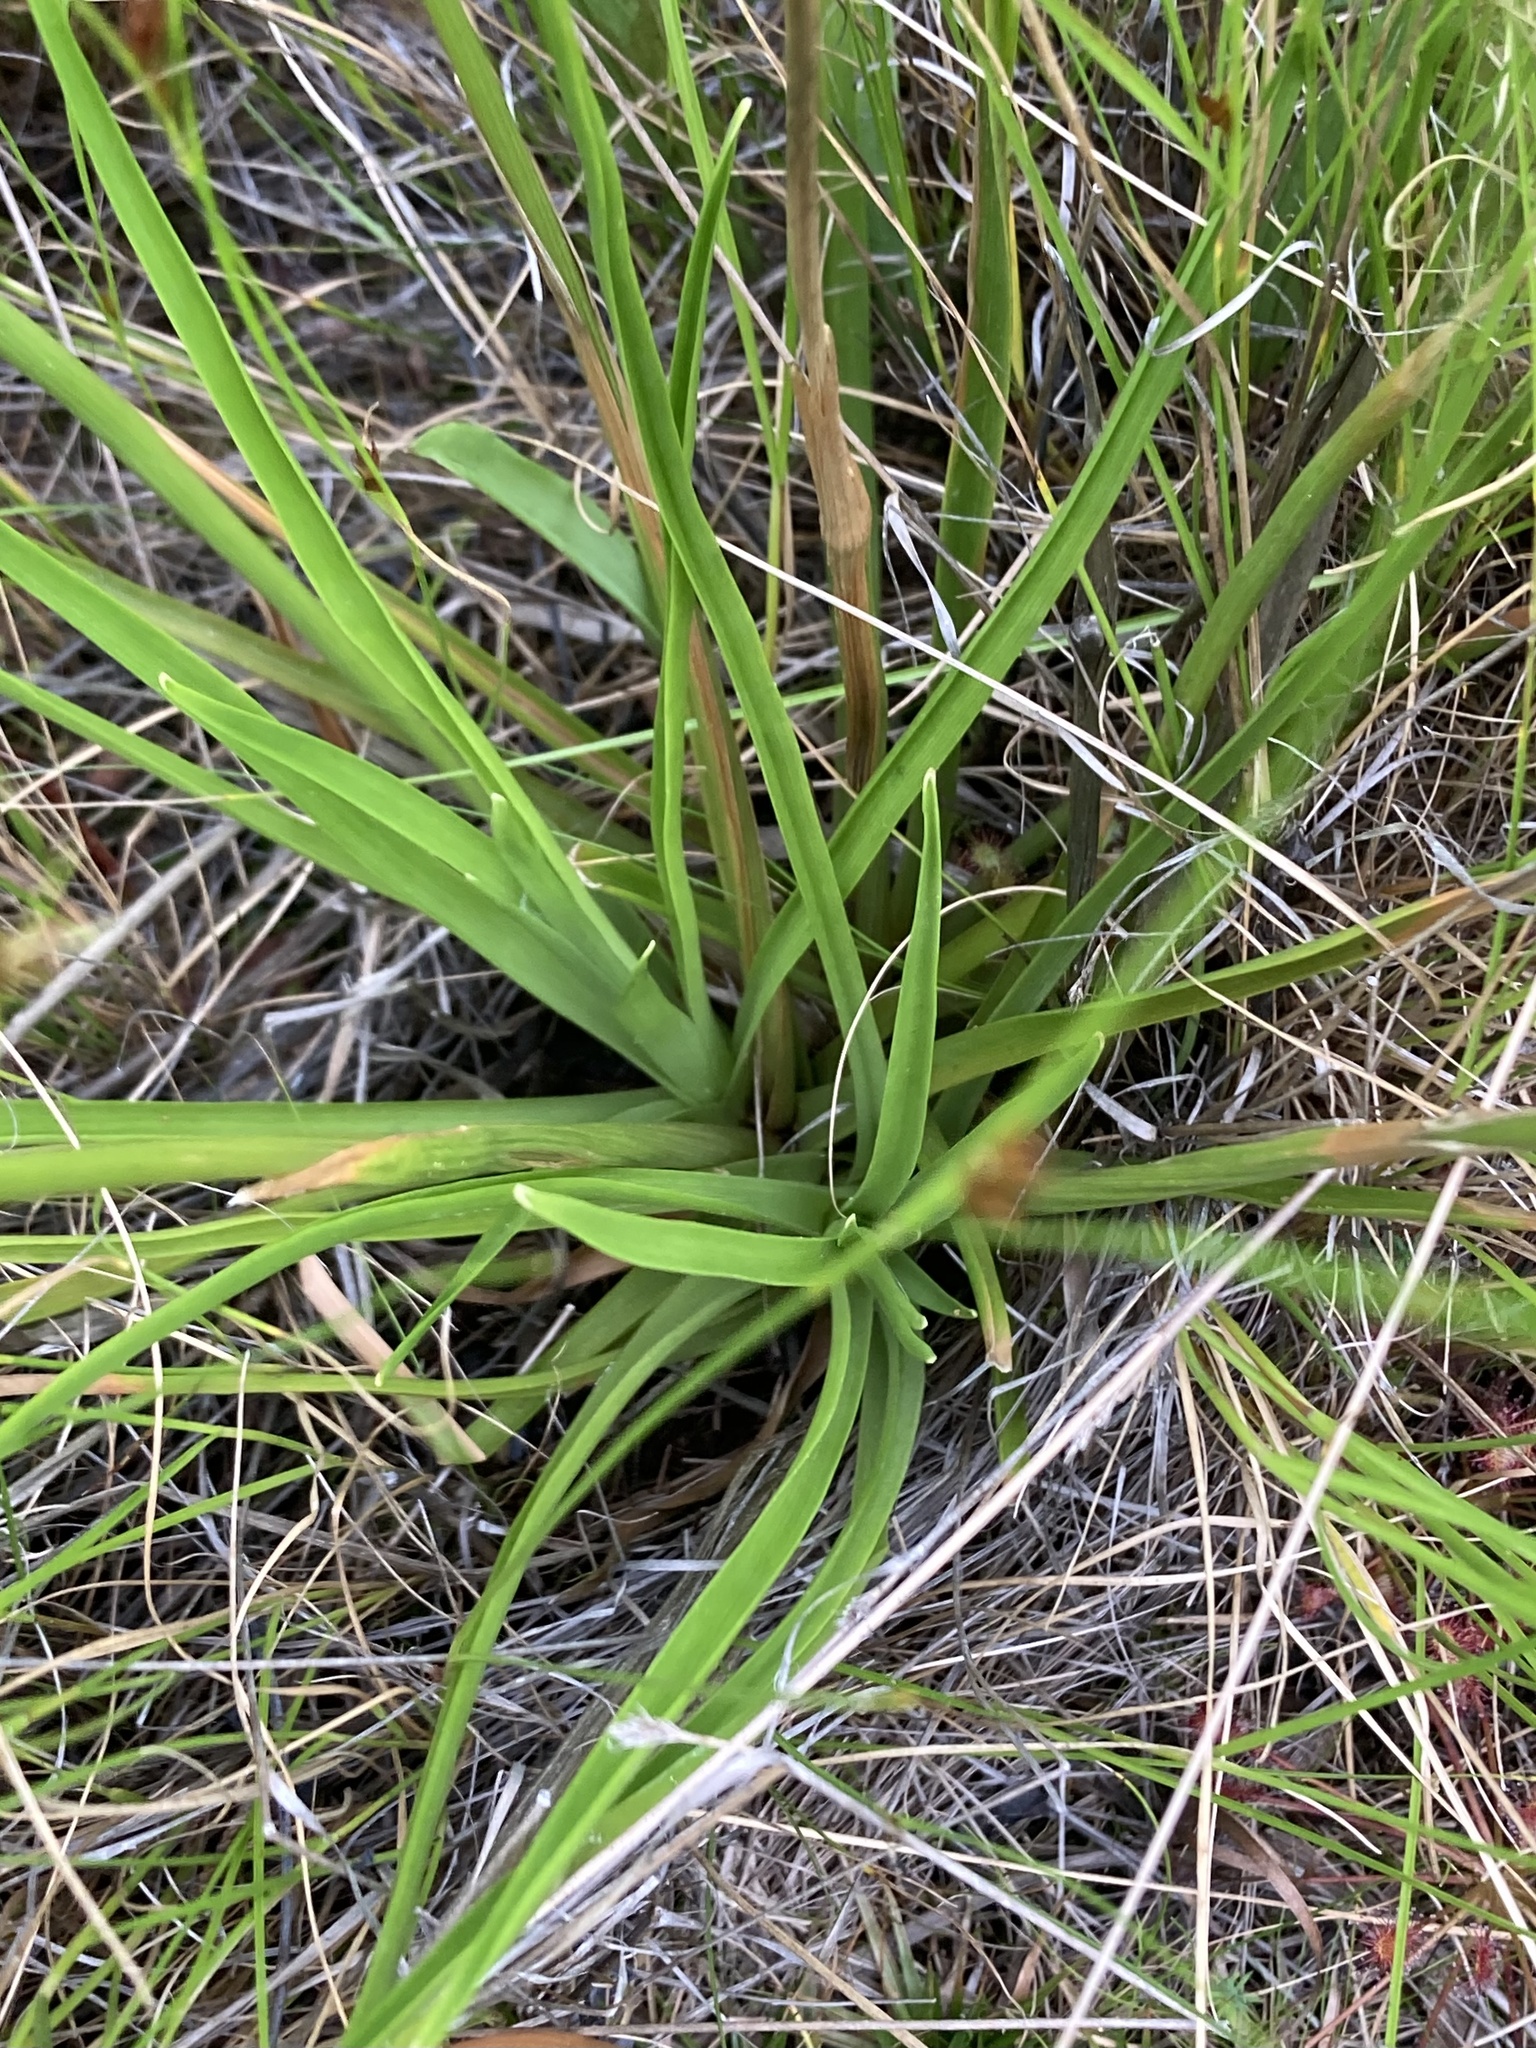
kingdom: Plantae
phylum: Tracheophyta
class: Liliopsida
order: Poales
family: Eriocaulaceae
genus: Eriocaulon
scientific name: Eriocaulon decangulare
